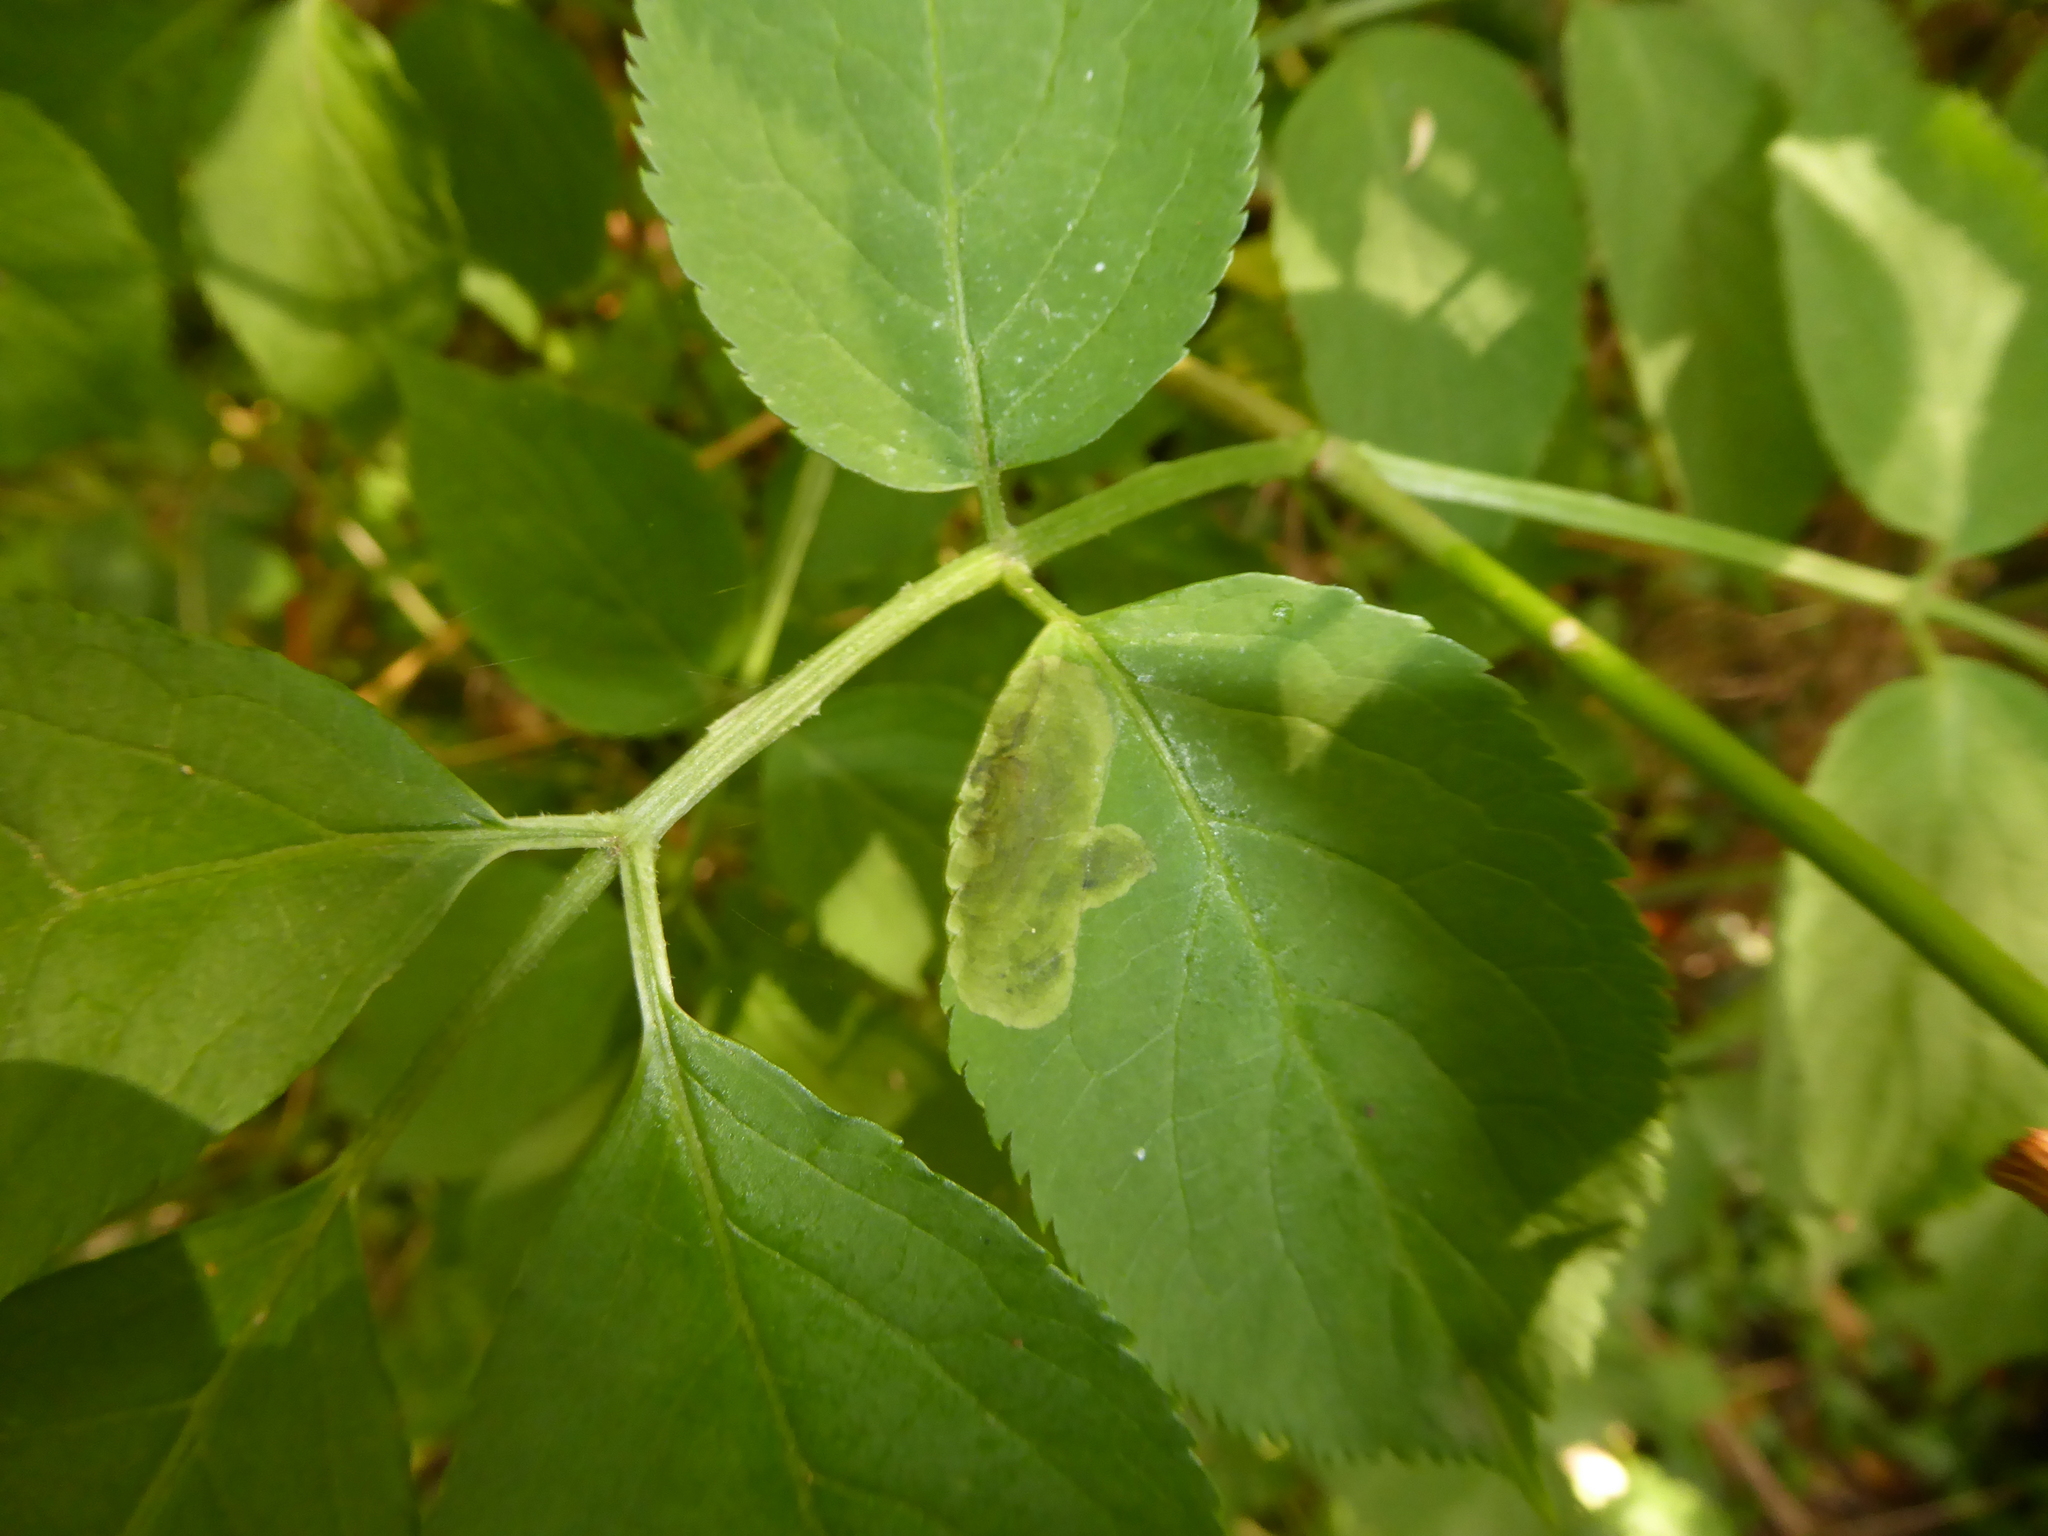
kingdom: Animalia
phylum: Arthropoda
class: Insecta
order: Diptera
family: Agromyzidae
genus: Liriomyza
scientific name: Liriomyza amoena
